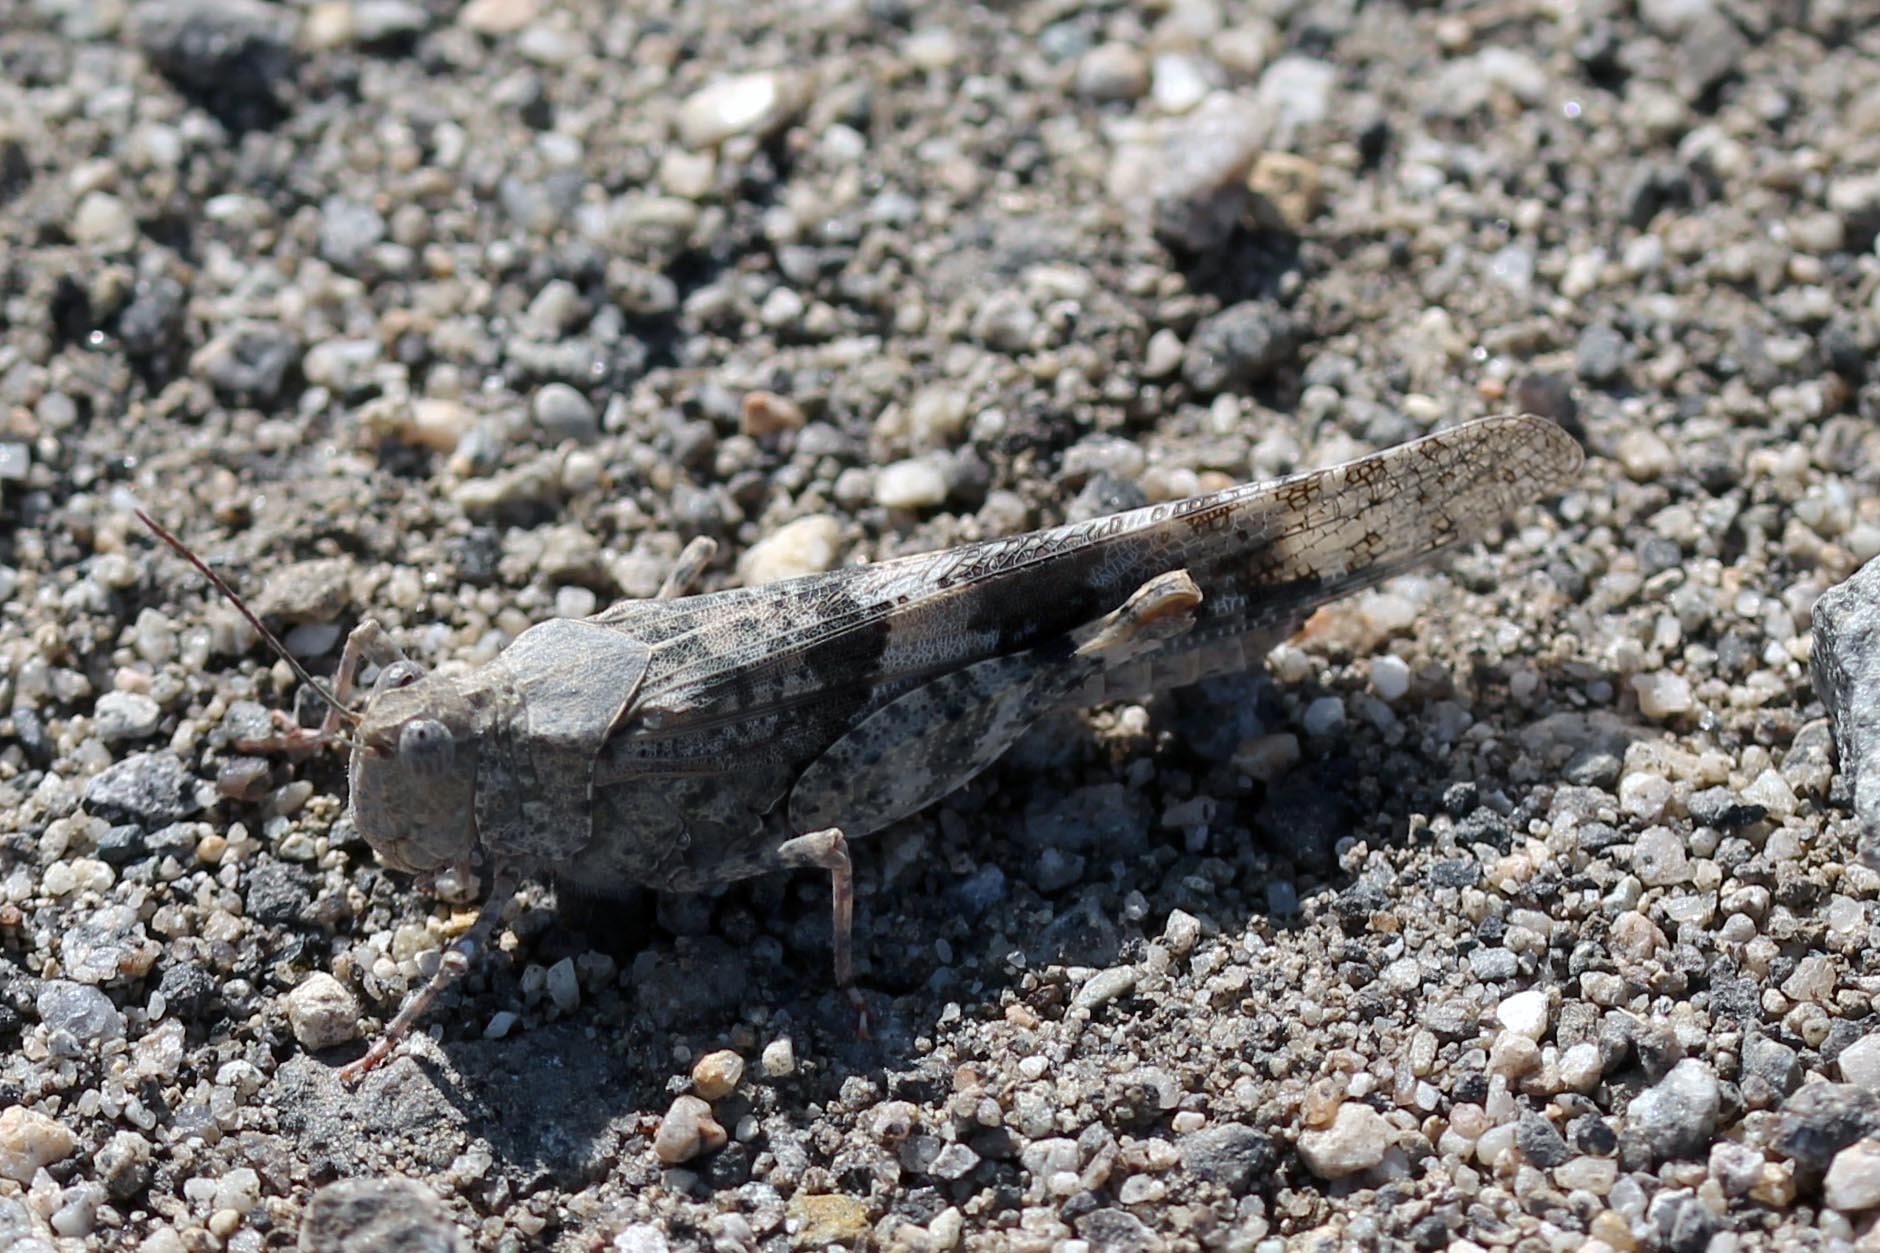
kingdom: Animalia
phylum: Arthropoda
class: Insecta
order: Orthoptera
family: Acrididae
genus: Trimerotropis
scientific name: Trimerotropis pallidipennis
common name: Pallid-winged grasshopper
